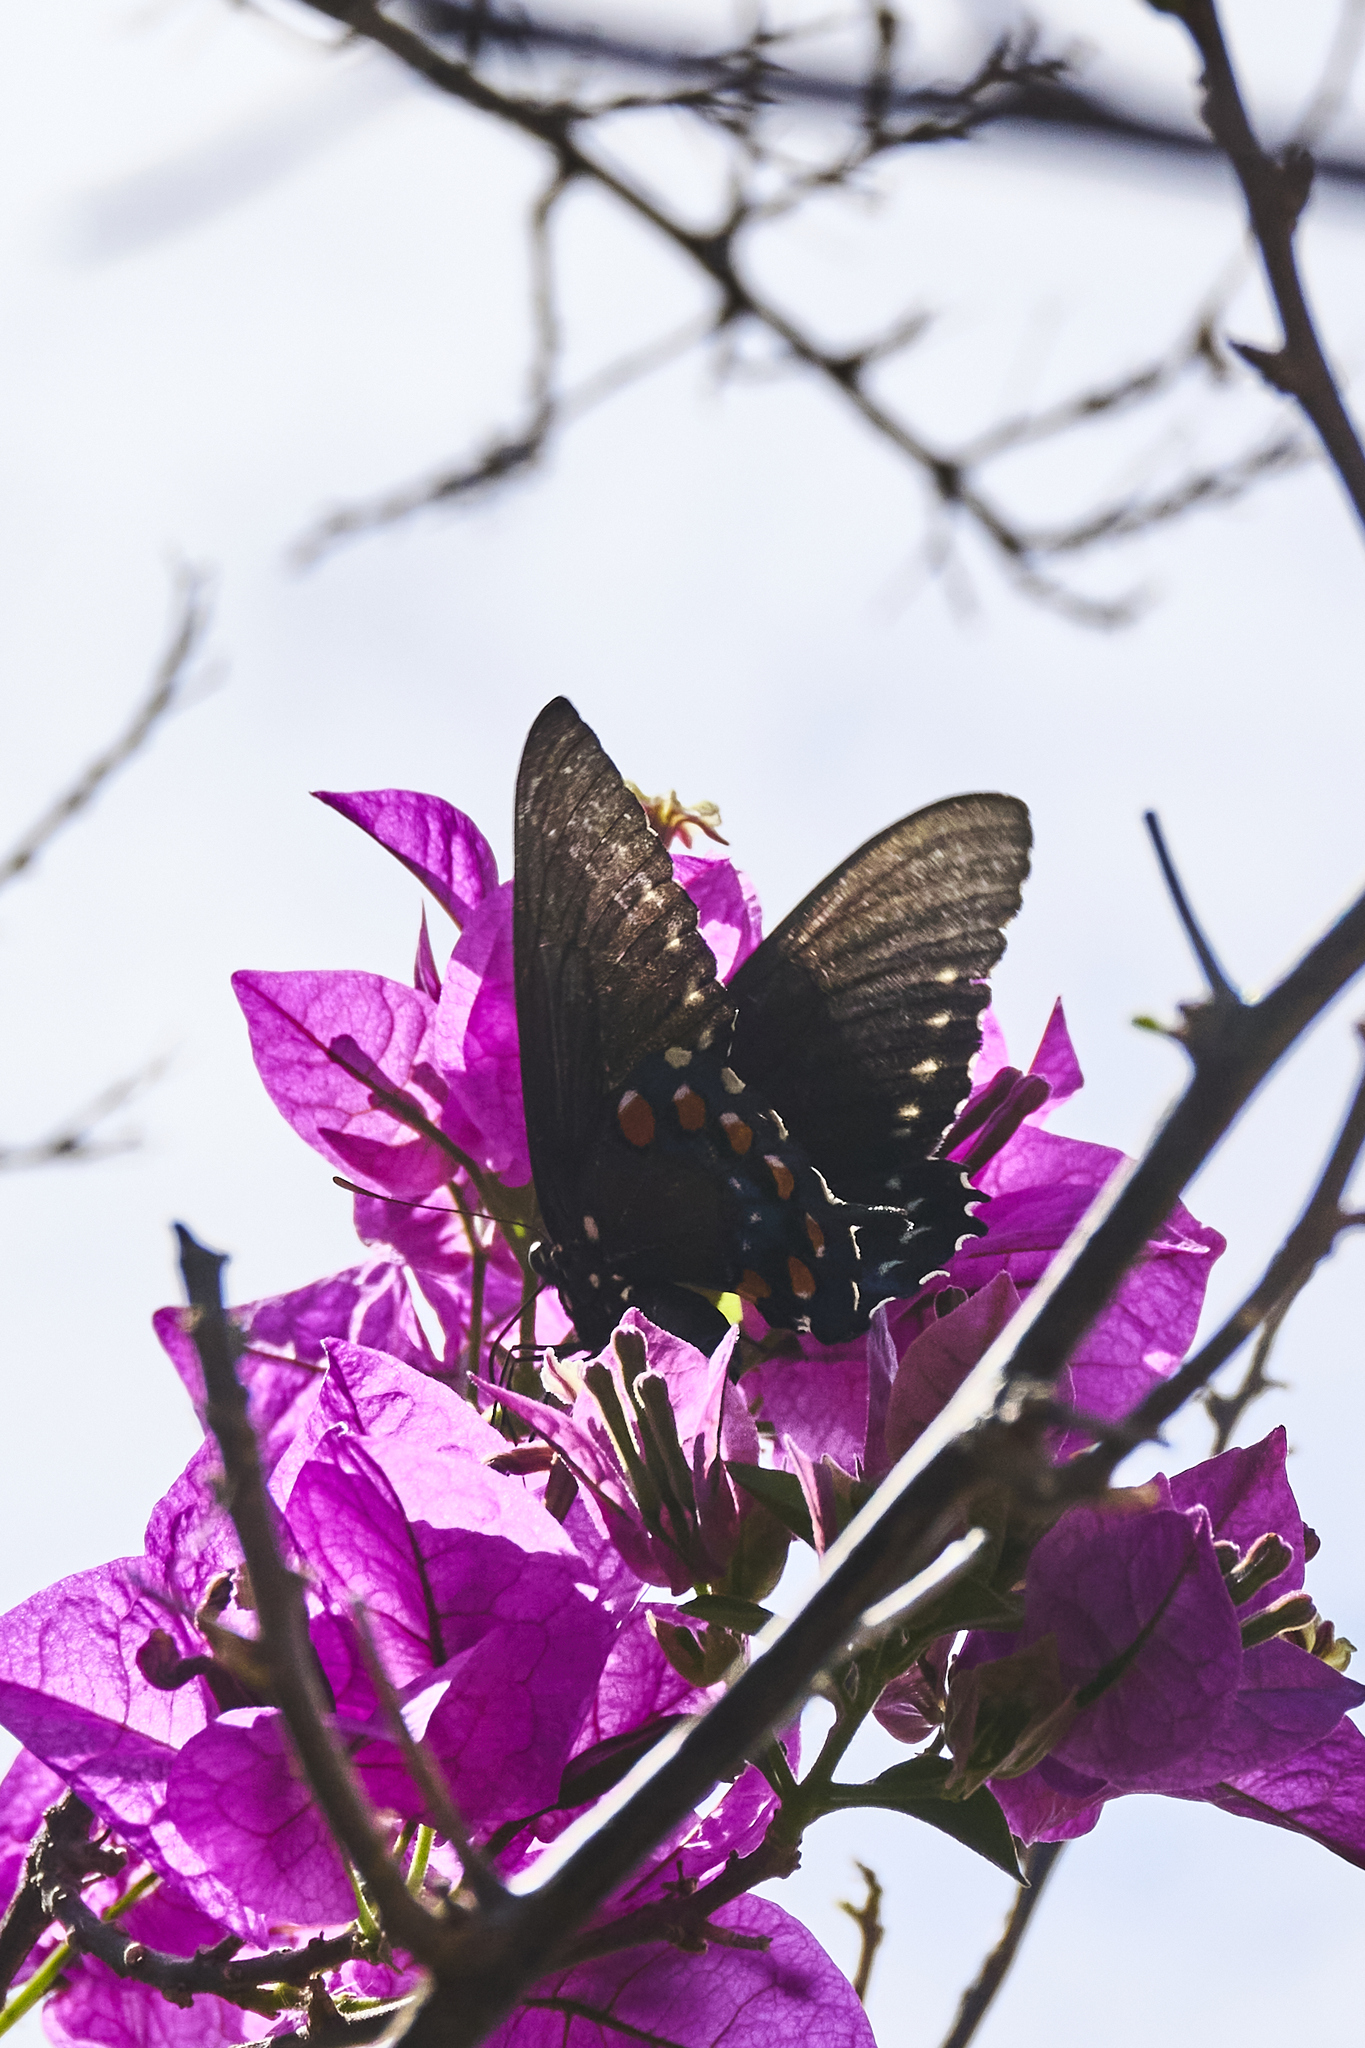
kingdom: Animalia
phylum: Arthropoda
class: Insecta
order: Lepidoptera
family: Papilionidae
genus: Battus
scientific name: Battus philenor
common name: Pipevine swallowtail
